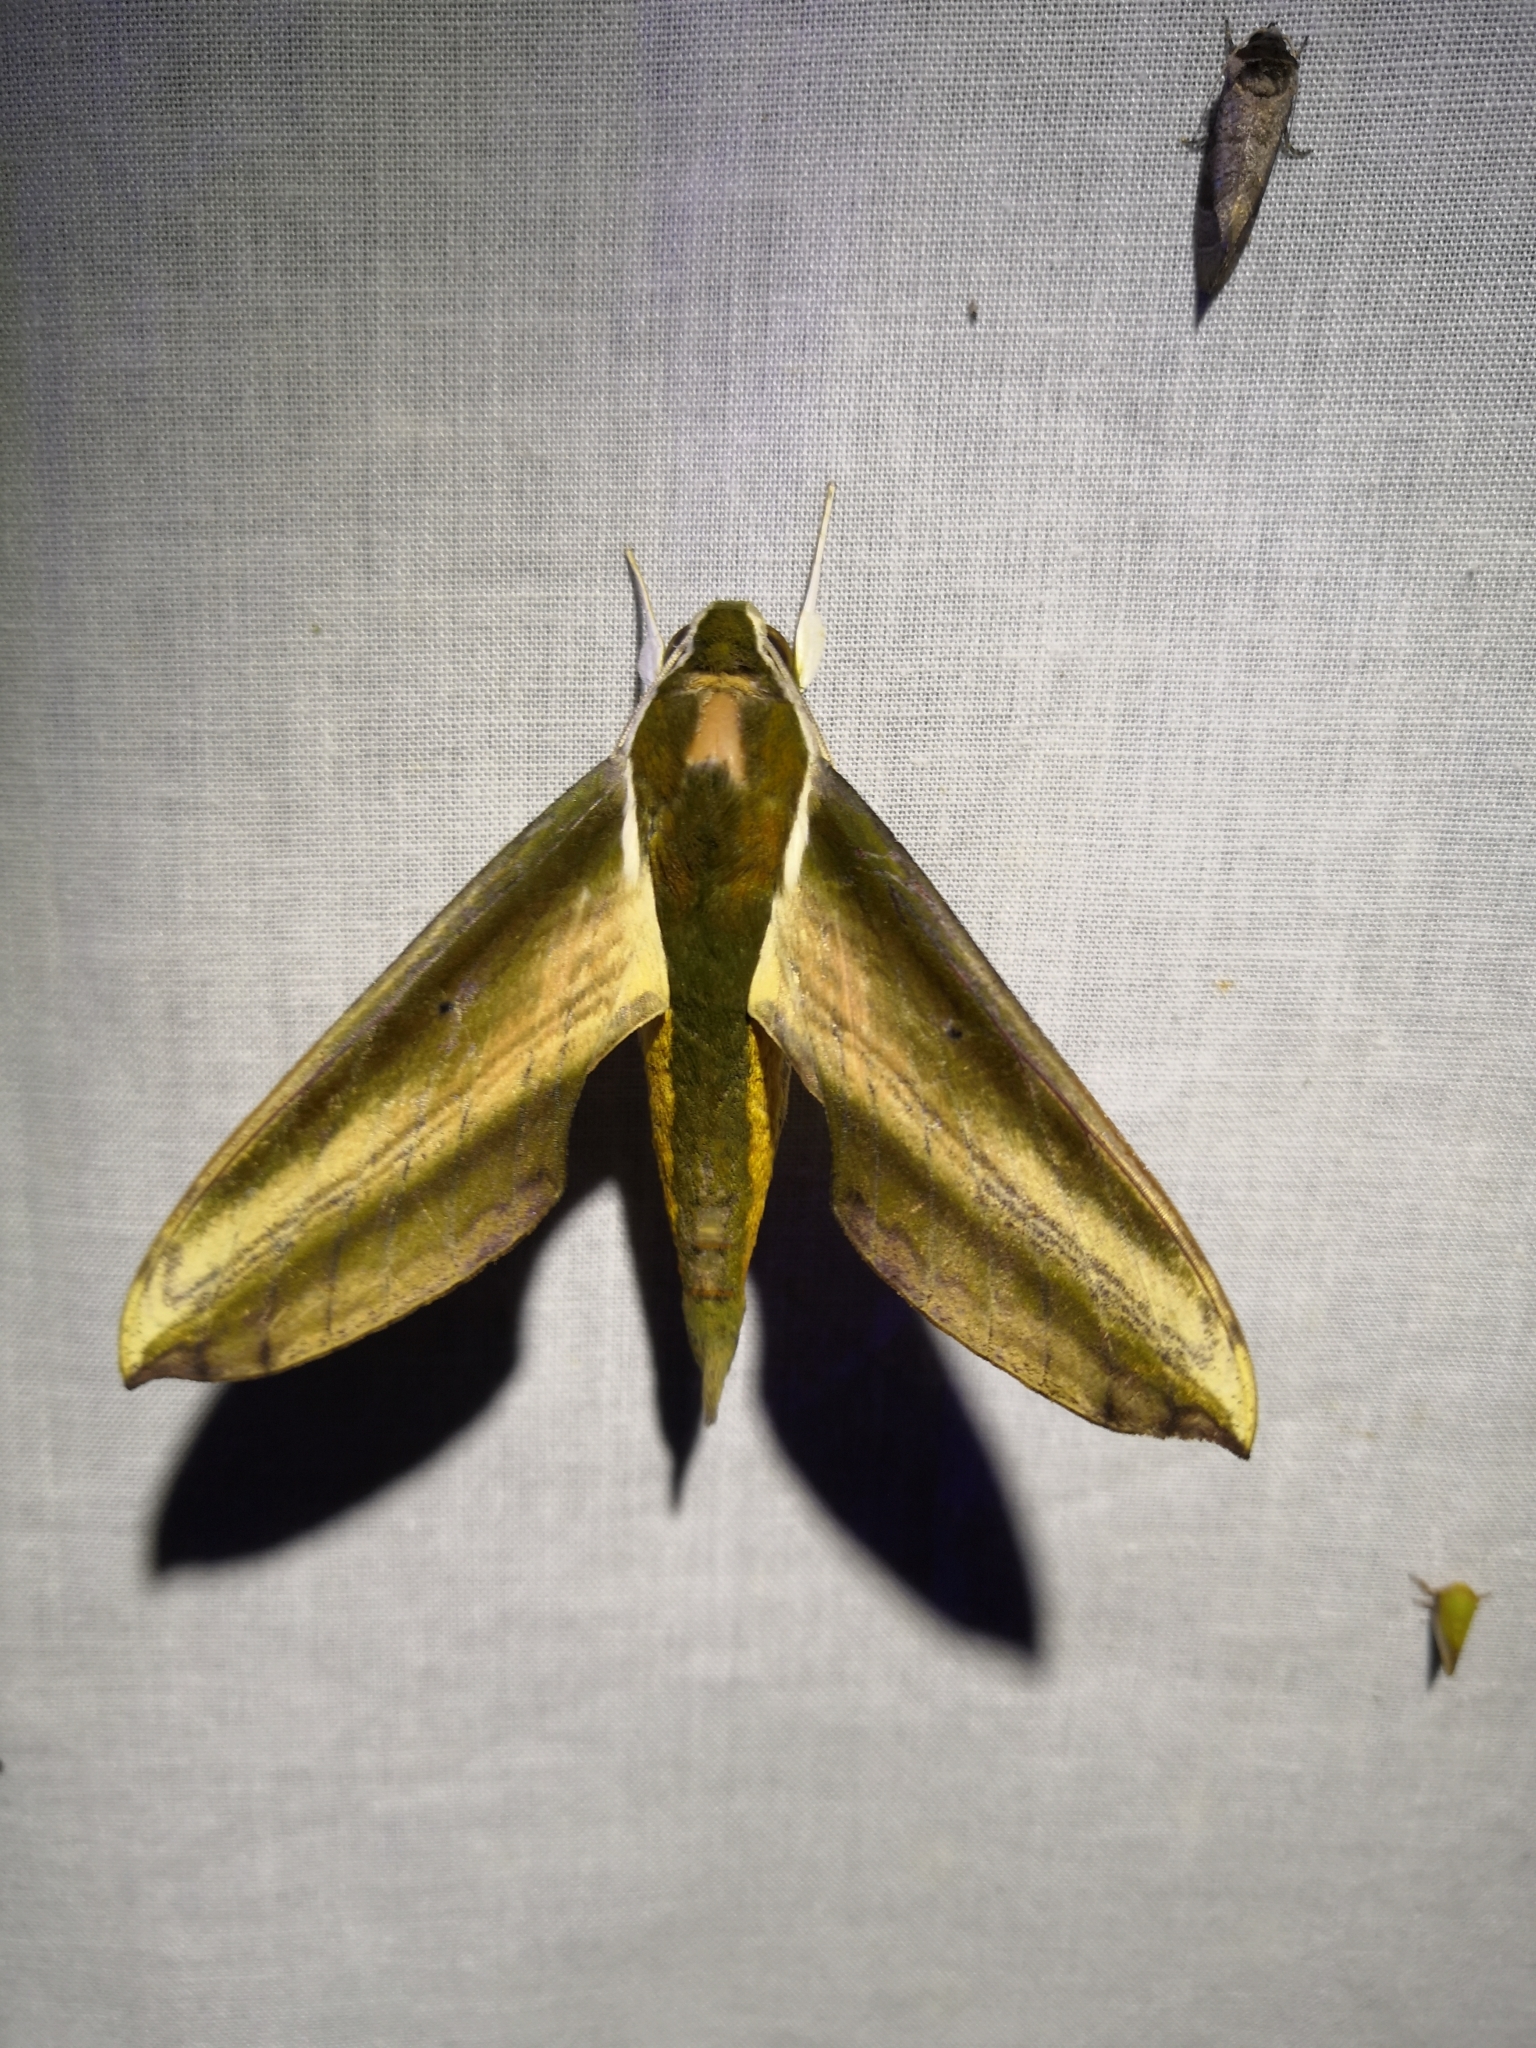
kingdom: Animalia
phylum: Arthropoda
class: Insecta
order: Lepidoptera
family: Sphingidae
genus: Theretra
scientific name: Theretra nessus
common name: Yam hawk moth
